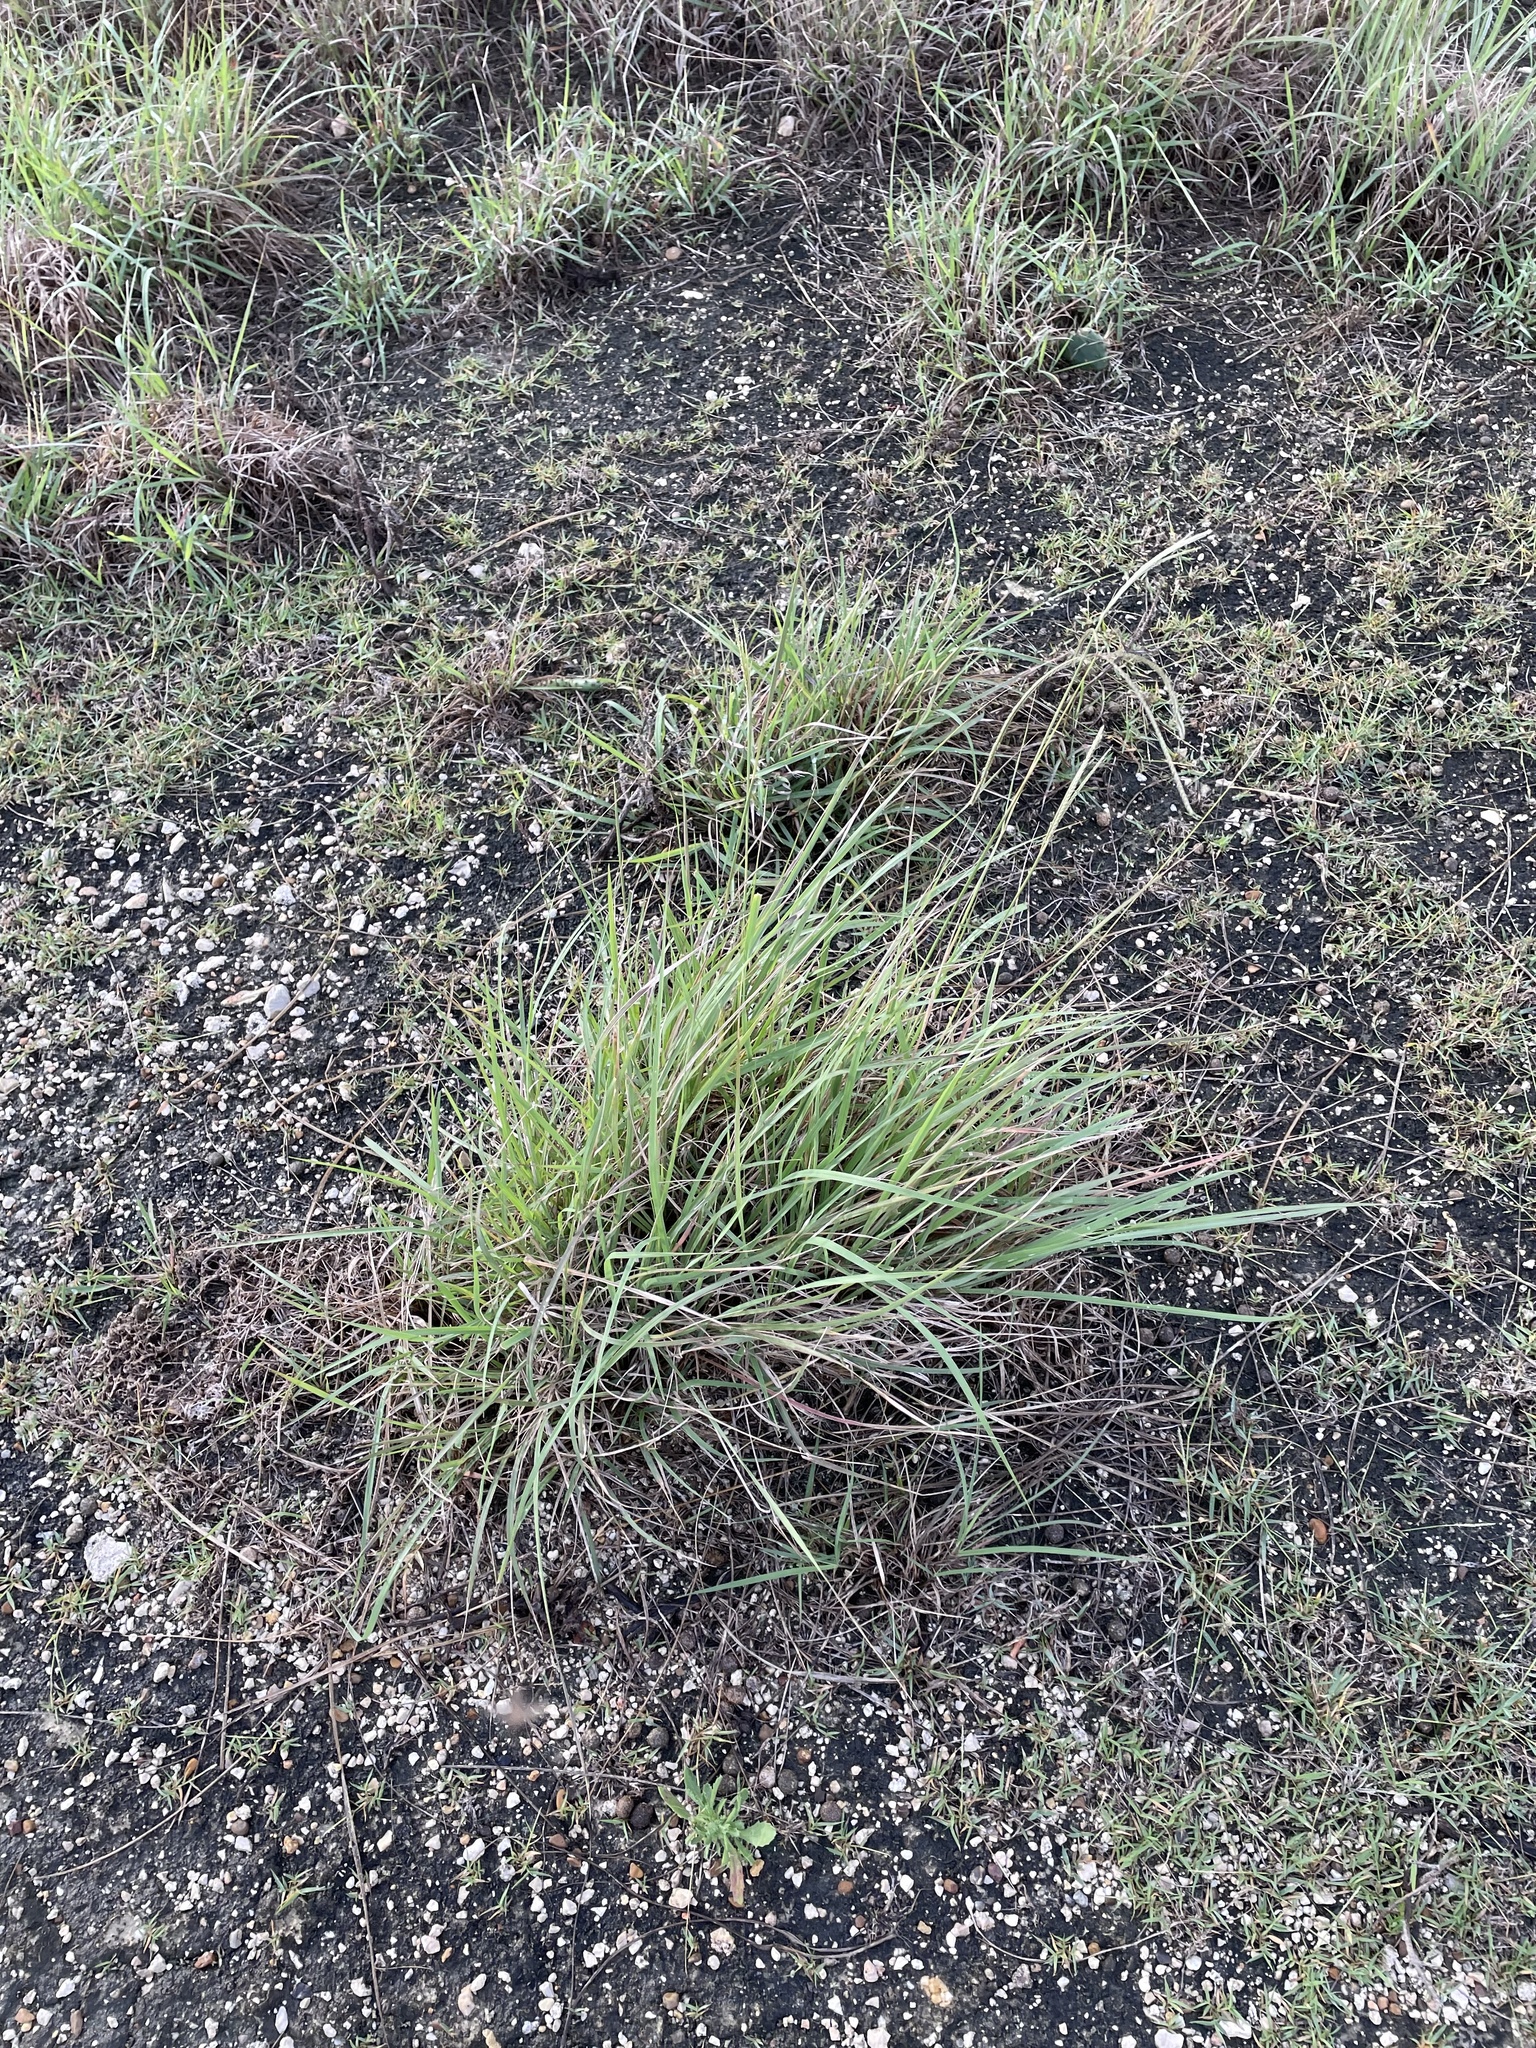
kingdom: Plantae
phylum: Tracheophyta
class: Liliopsida
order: Poales
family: Poaceae
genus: Stapfochloa
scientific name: Stapfochloa canterae
